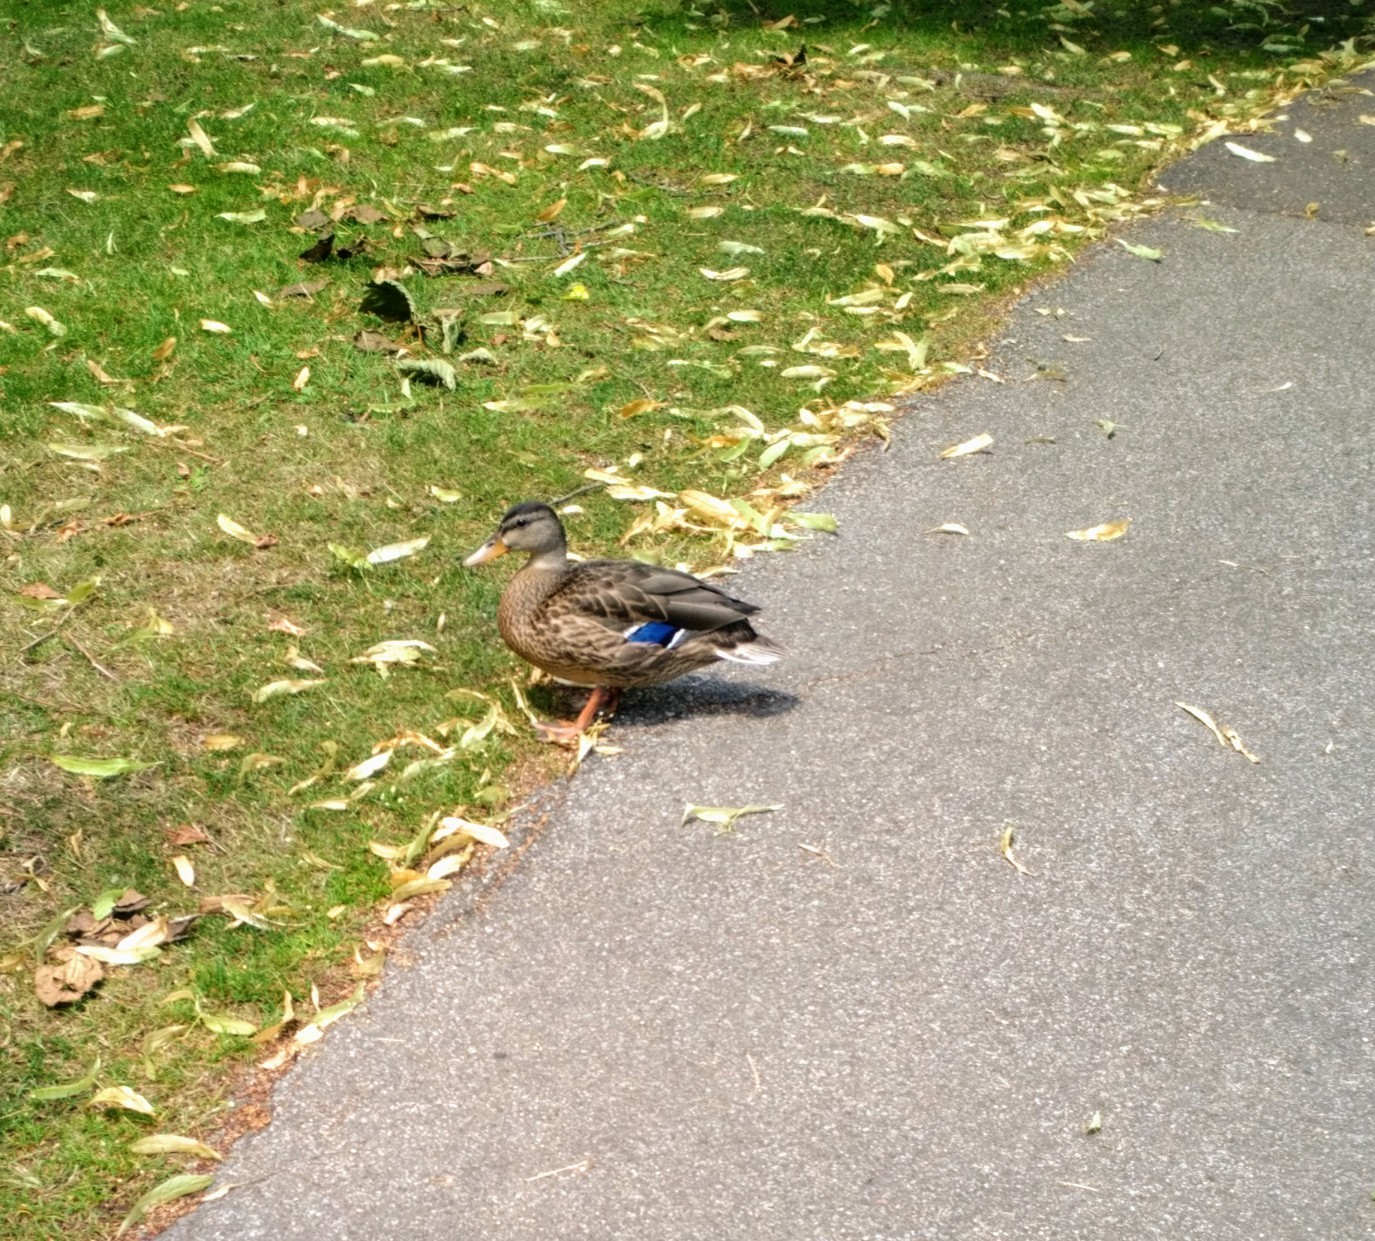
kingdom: Animalia
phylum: Chordata
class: Aves
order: Anseriformes
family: Anatidae
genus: Anas
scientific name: Anas platyrhynchos
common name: Mallard
